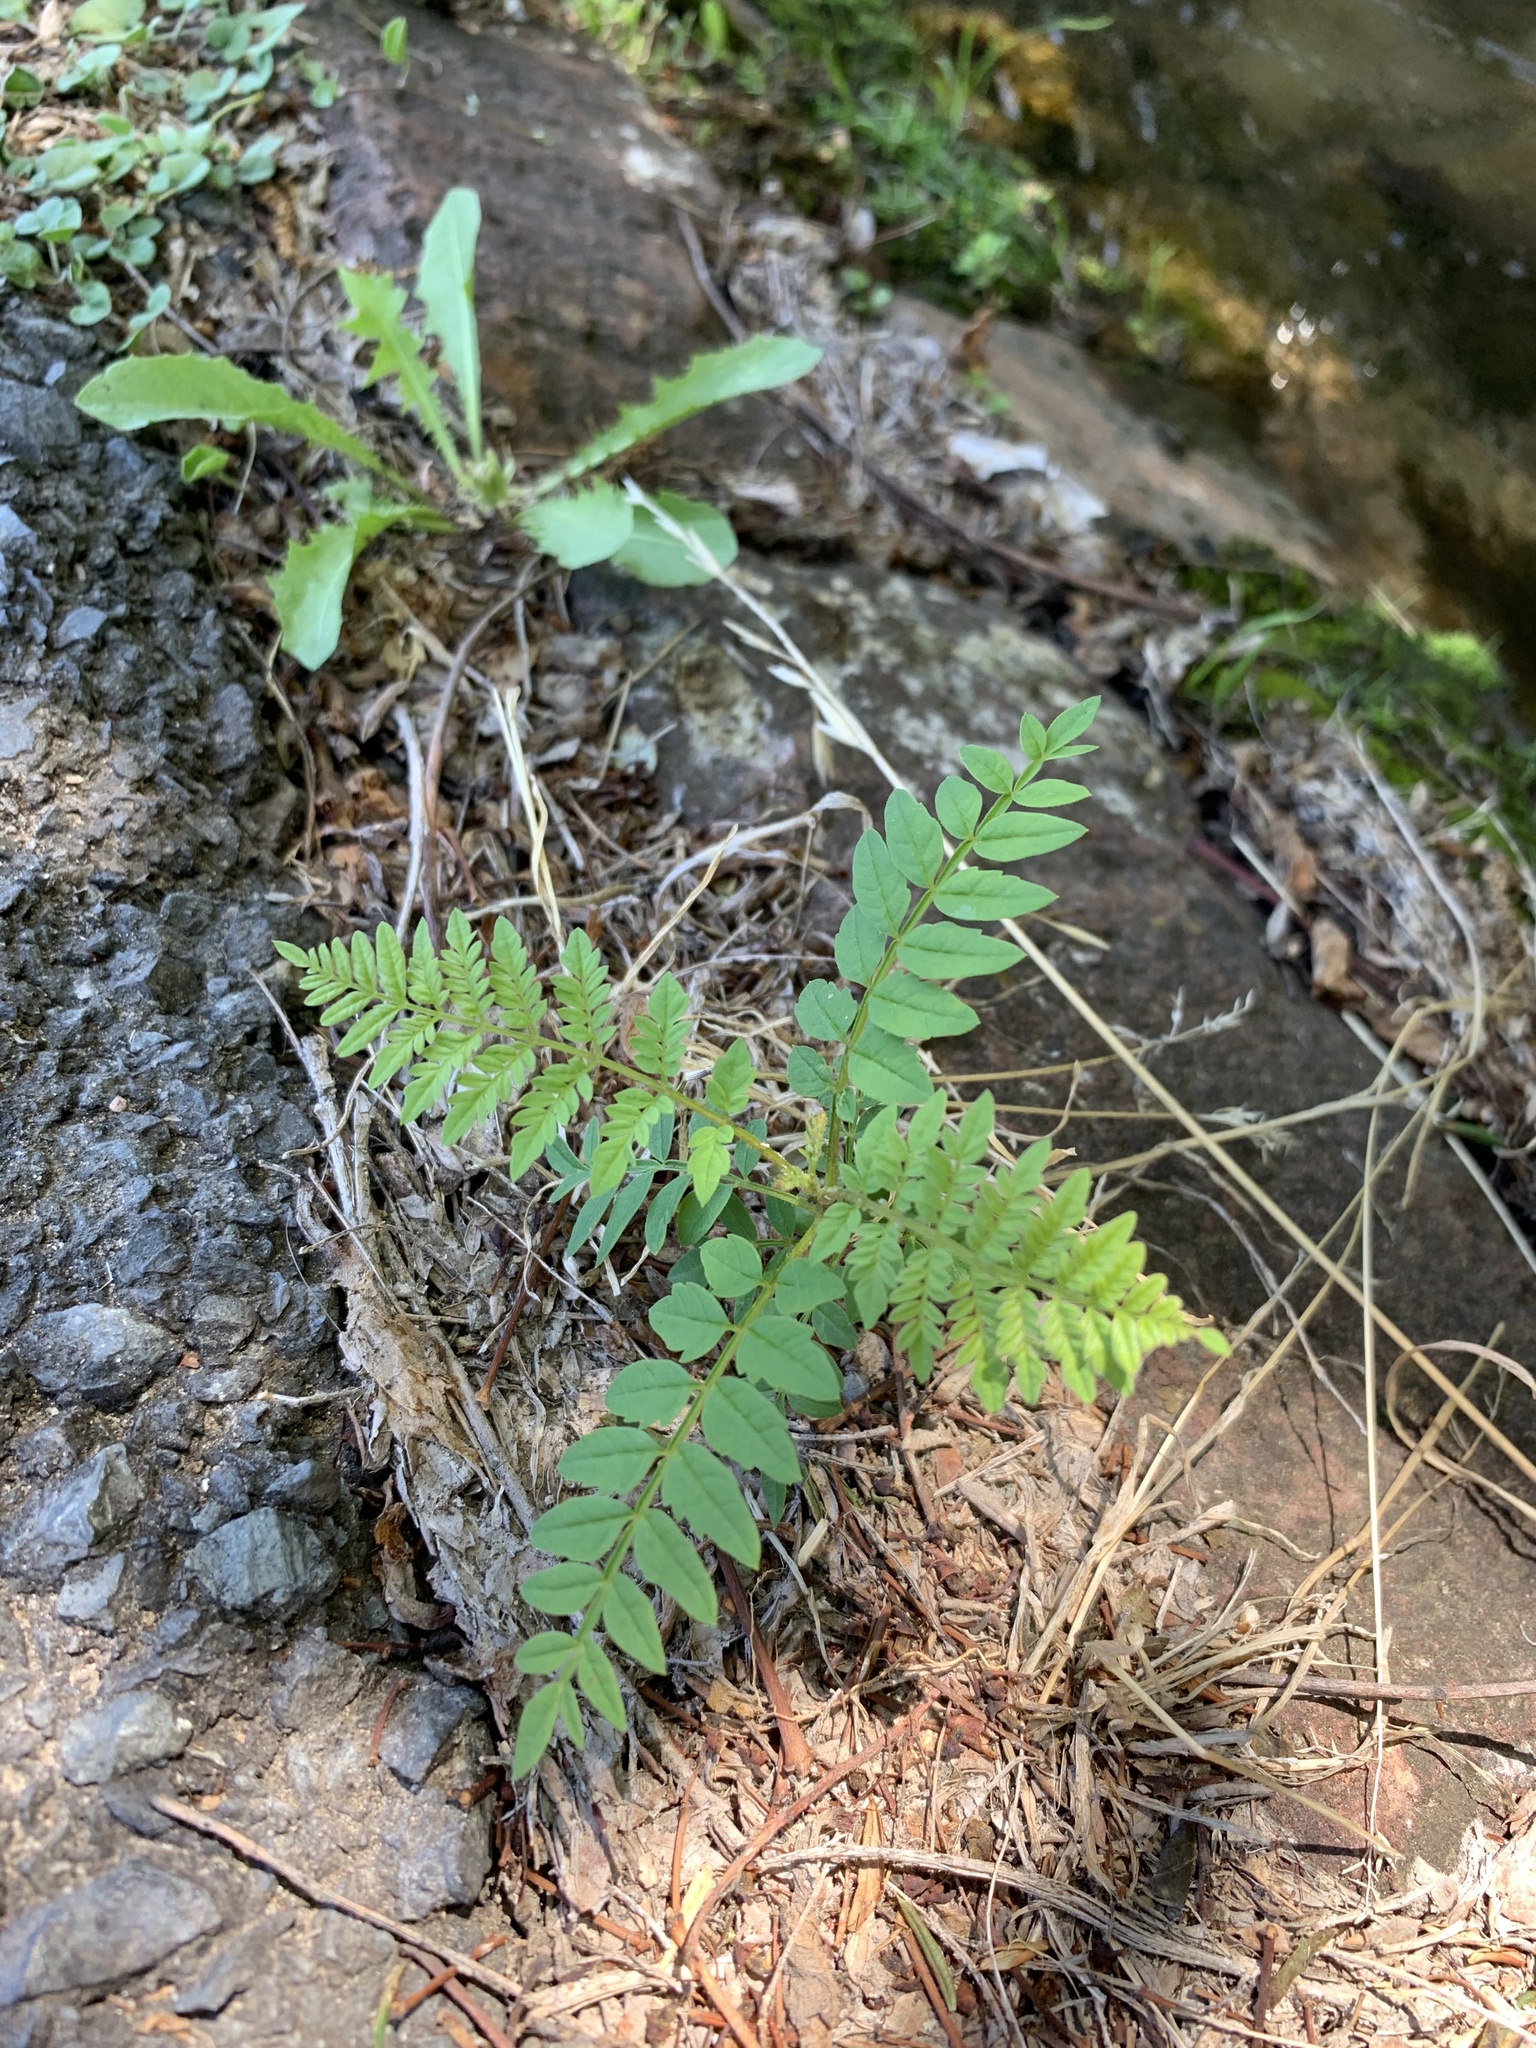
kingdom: Plantae
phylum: Tracheophyta
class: Magnoliopsida
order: Lamiales
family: Bignoniaceae
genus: Jacaranda
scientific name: Jacaranda mimosifolia
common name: Black poui
